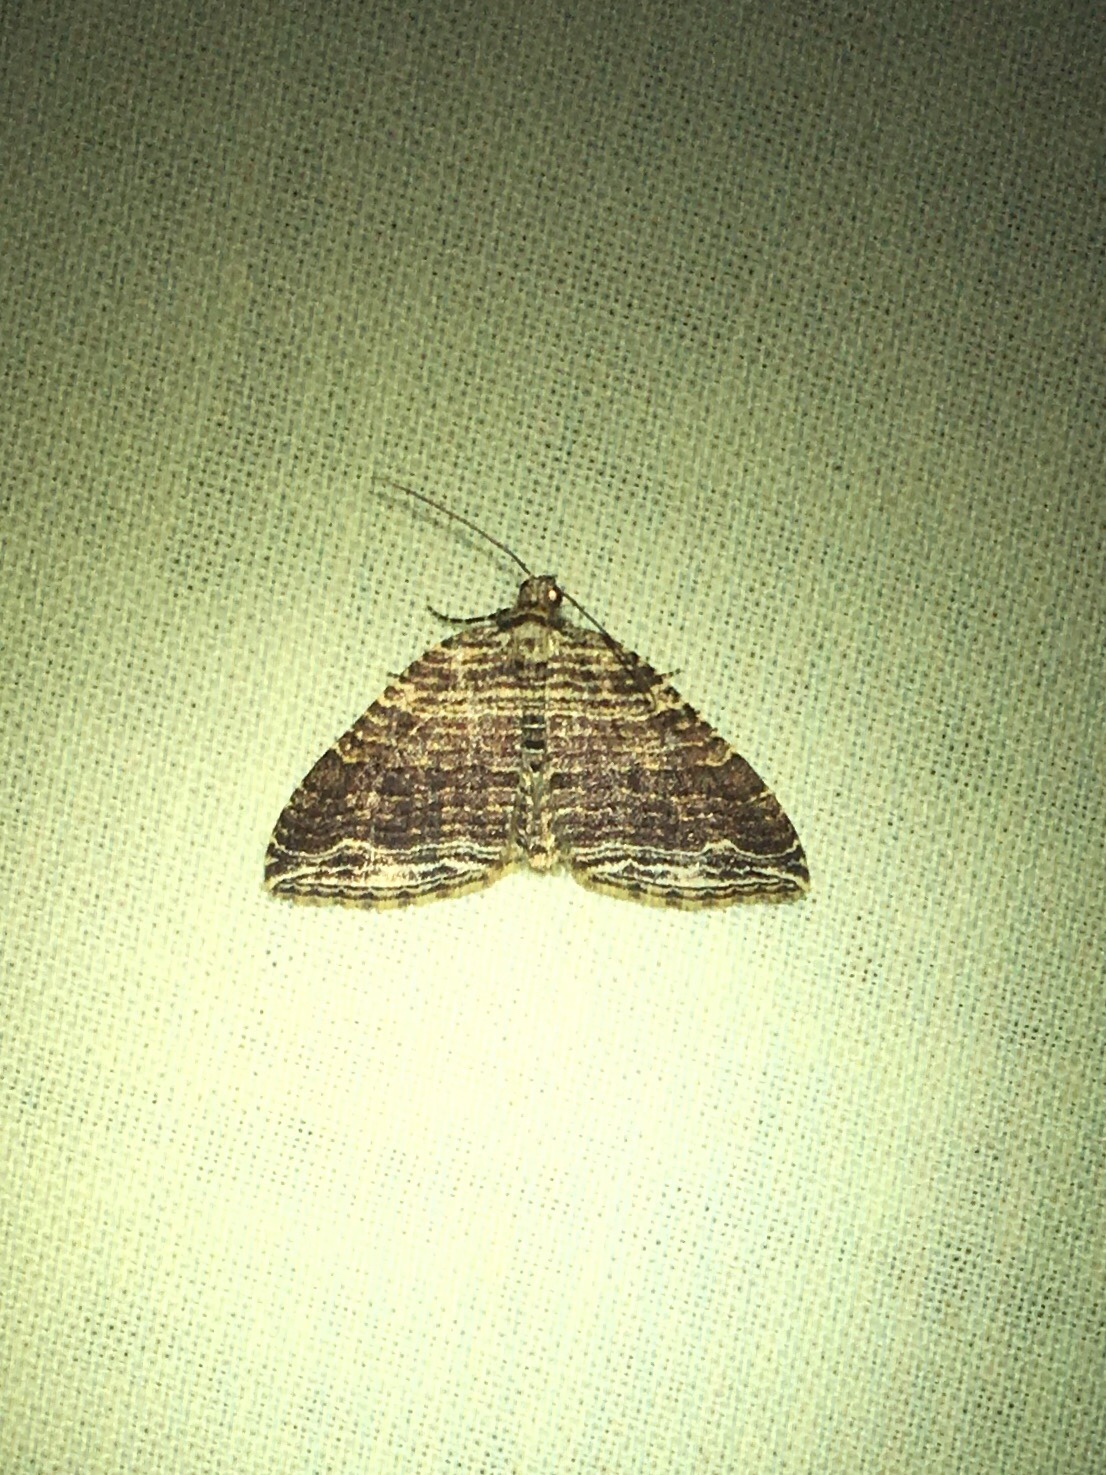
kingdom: Animalia
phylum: Arthropoda
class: Insecta
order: Lepidoptera
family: Geometridae
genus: Anticlea
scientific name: Anticlea multiferata
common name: Many-lined carpet
